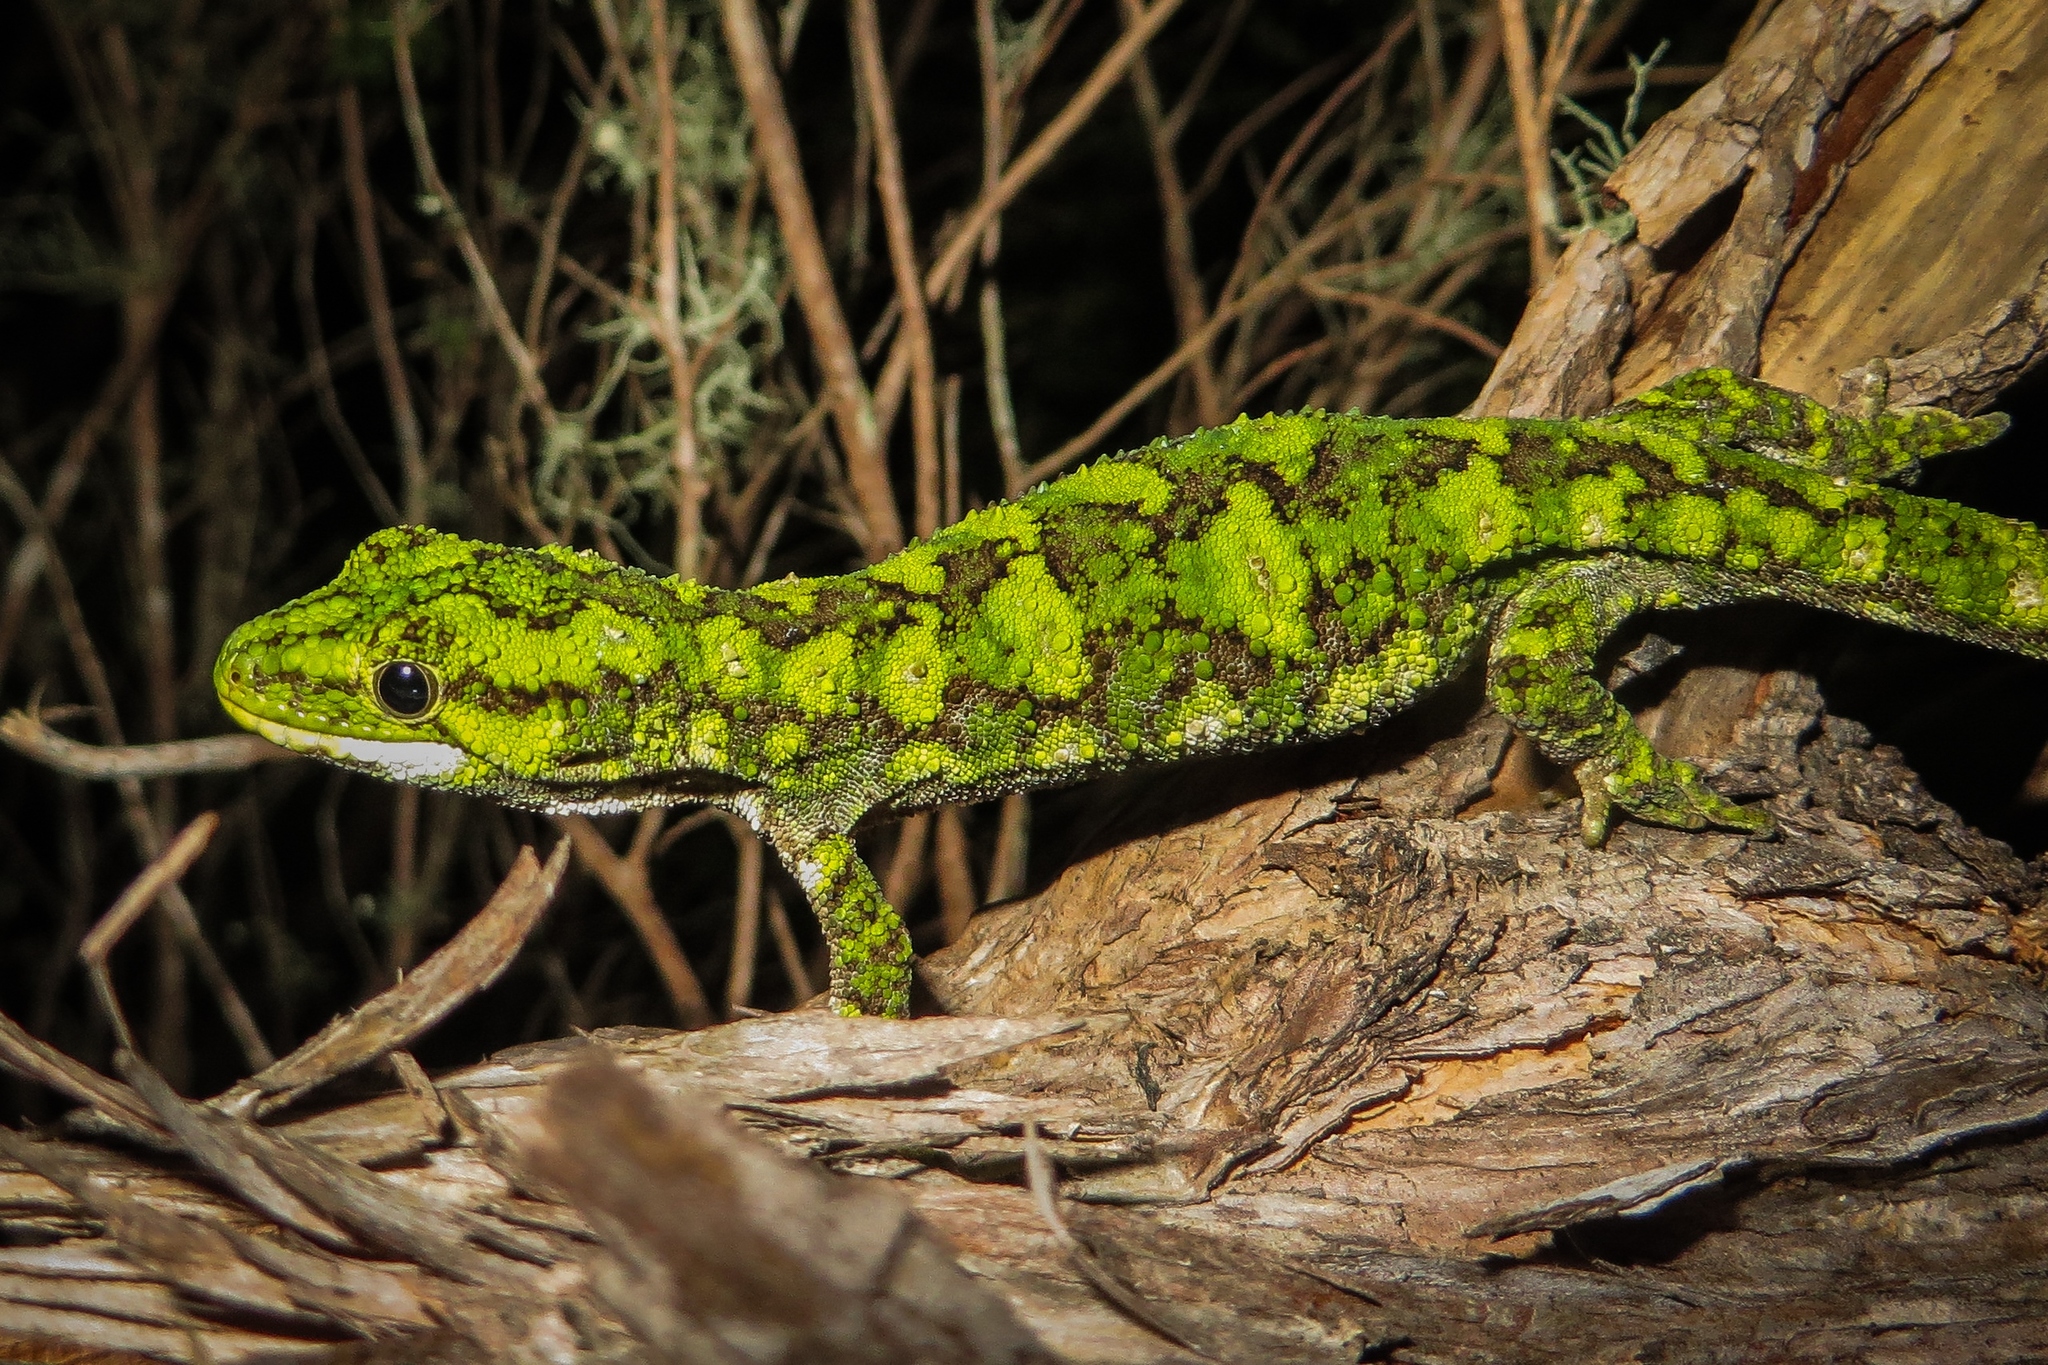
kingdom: Animalia
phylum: Chordata
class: Squamata
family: Diplodactylidae
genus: Naultinus
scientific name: Naultinus rudis
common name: Natural tree gecko
